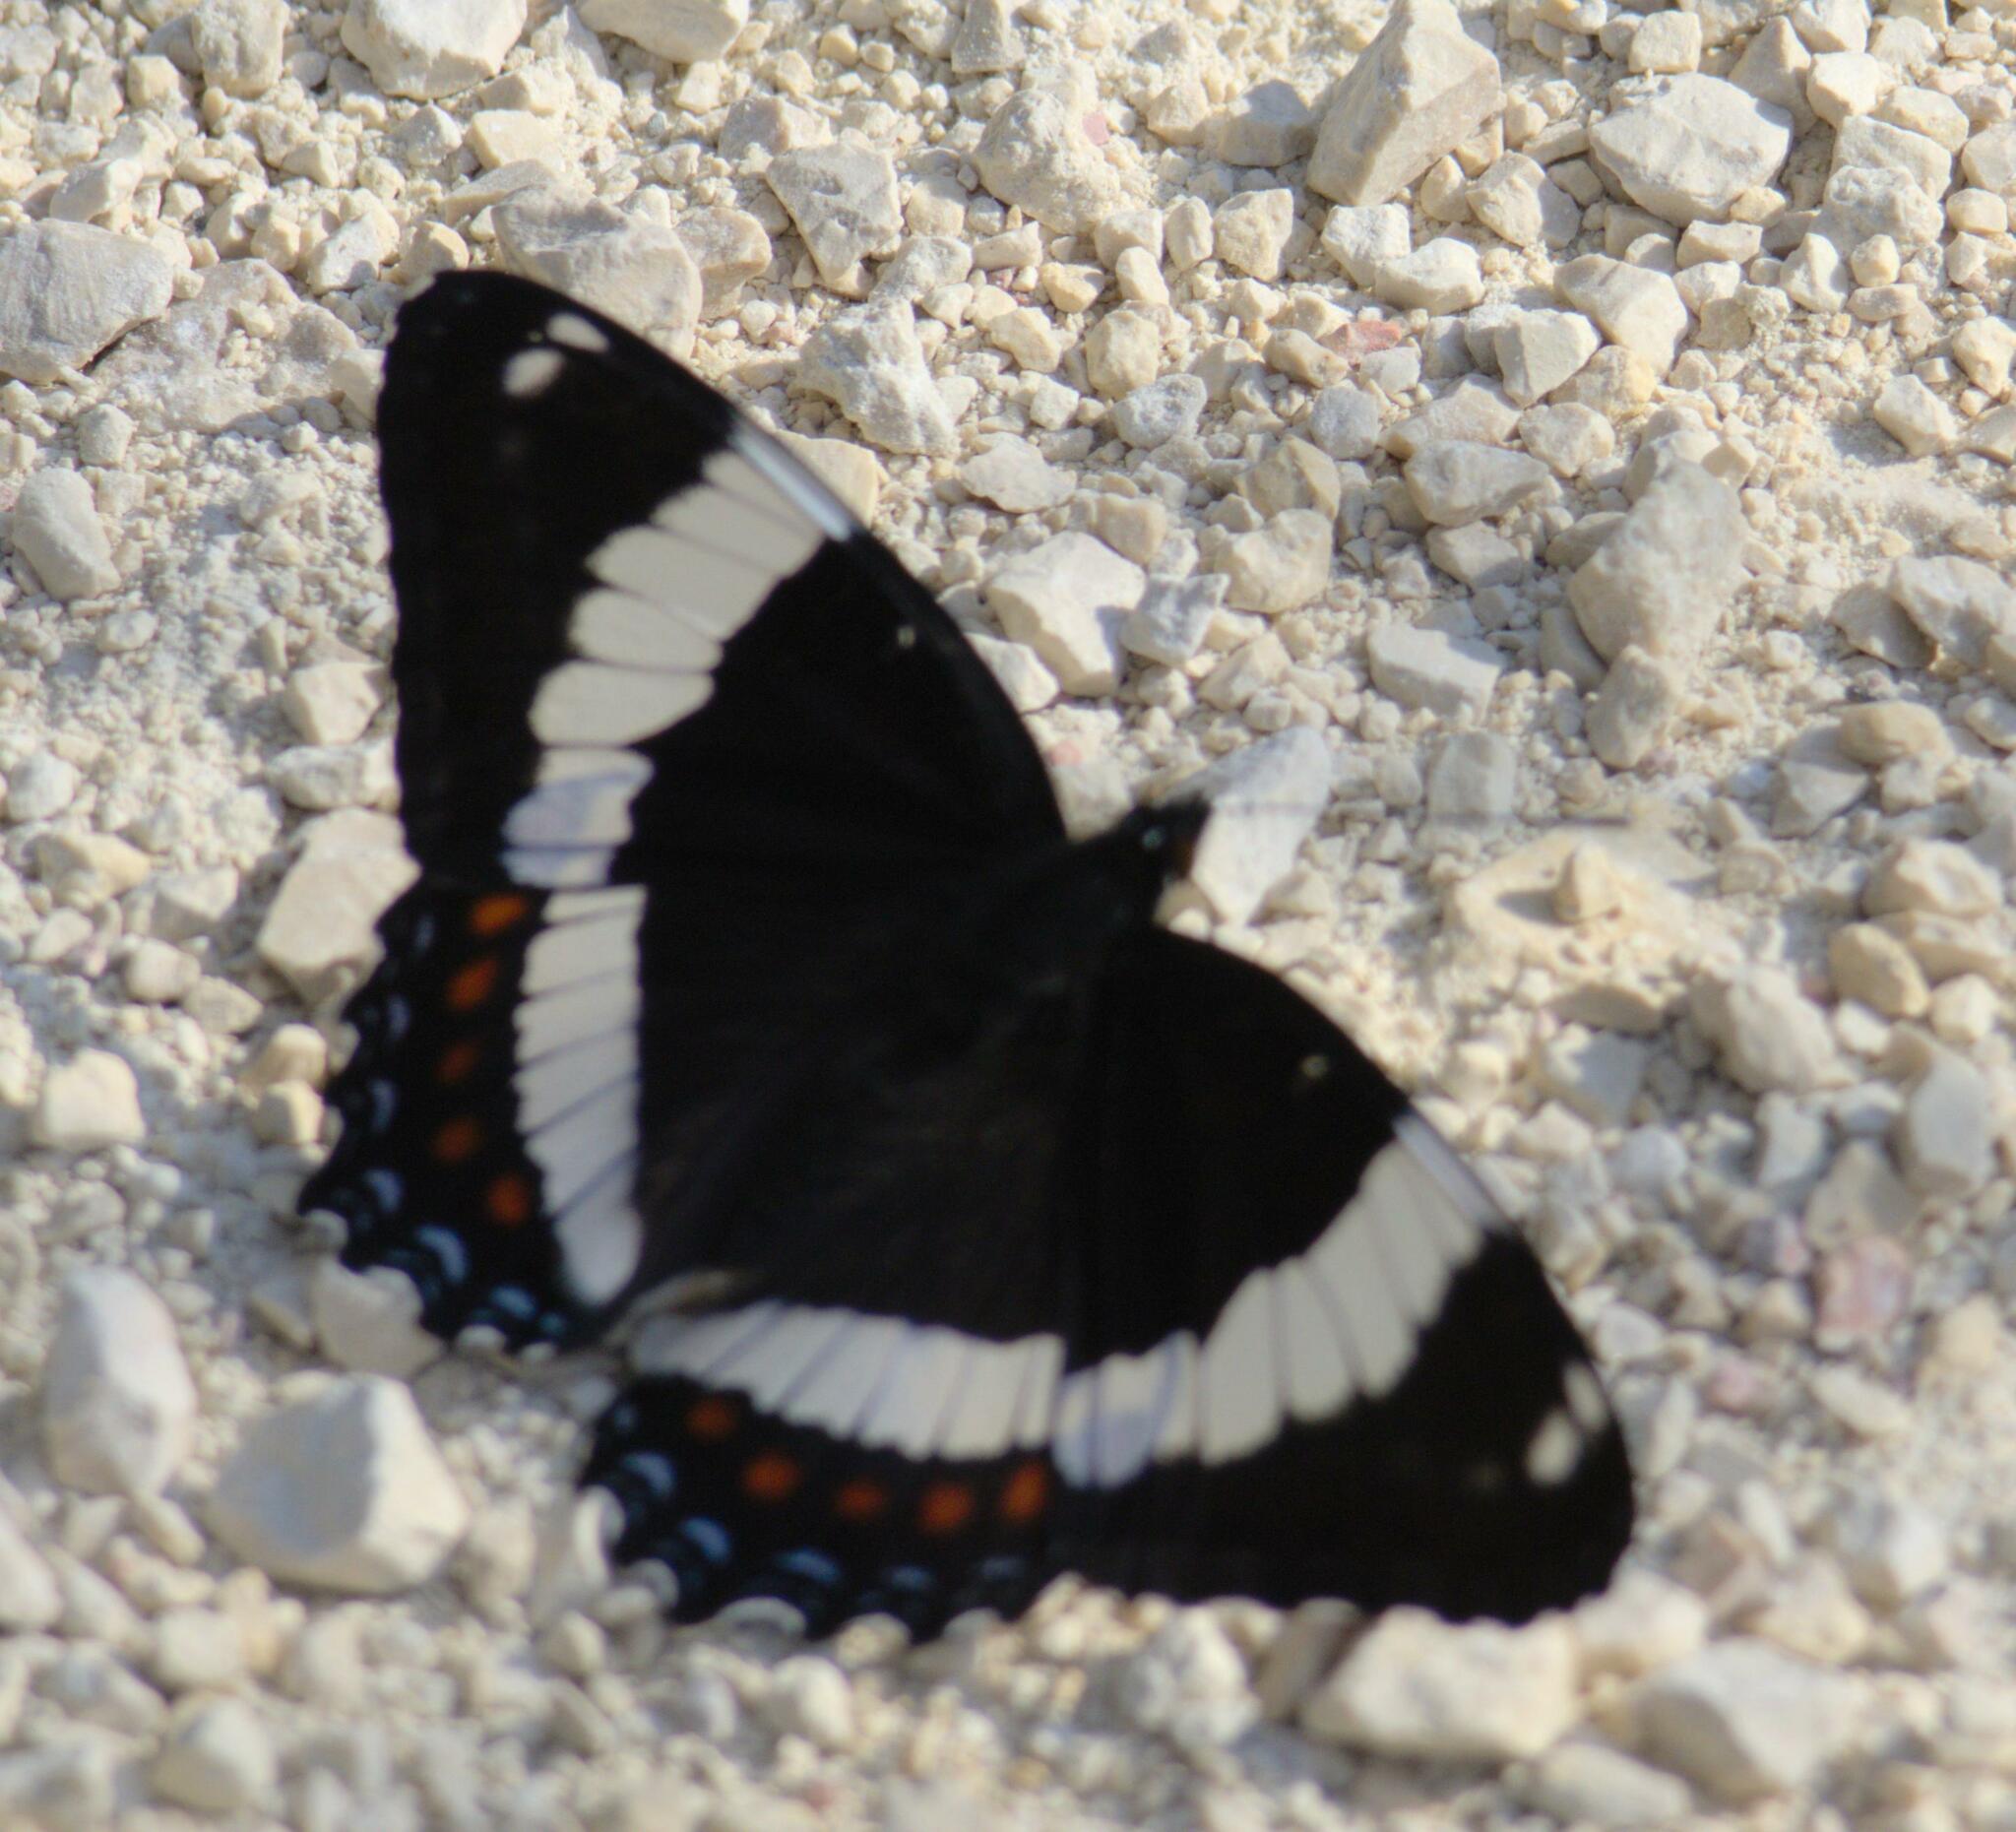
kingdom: Animalia
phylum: Arthropoda
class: Insecta
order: Lepidoptera
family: Nymphalidae
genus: Limenitis
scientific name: Limenitis arthemis
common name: Red-spotted admiral
